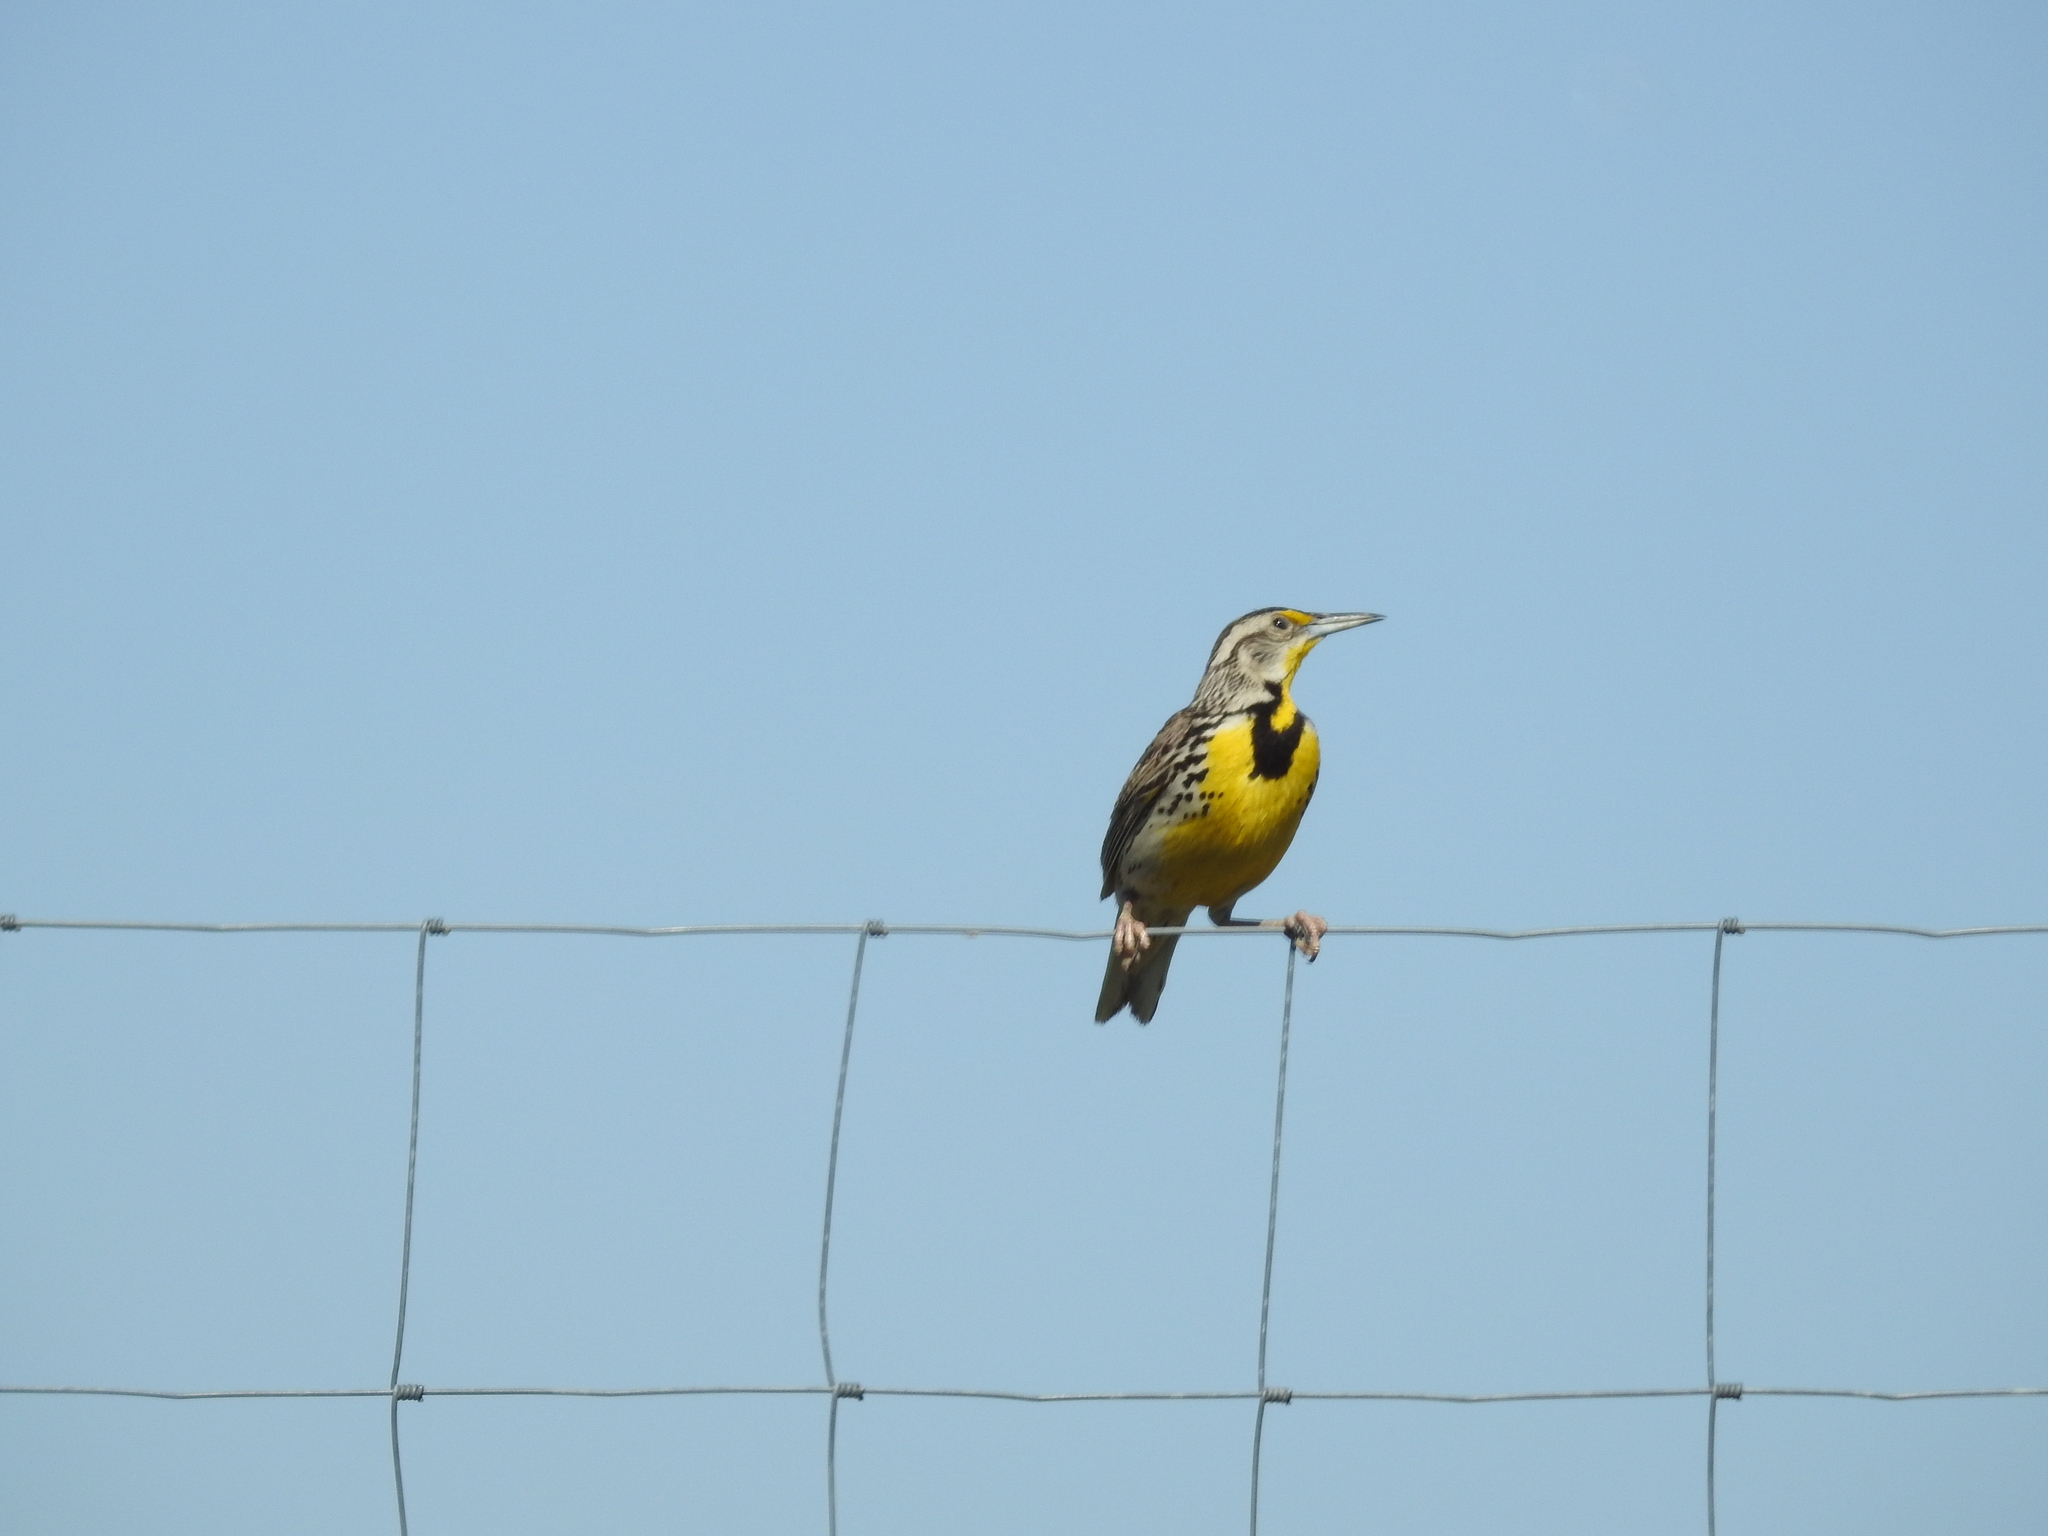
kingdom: Animalia
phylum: Chordata
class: Aves
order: Passeriformes
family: Icteridae
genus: Sturnella
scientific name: Sturnella neglecta
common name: Western meadowlark
